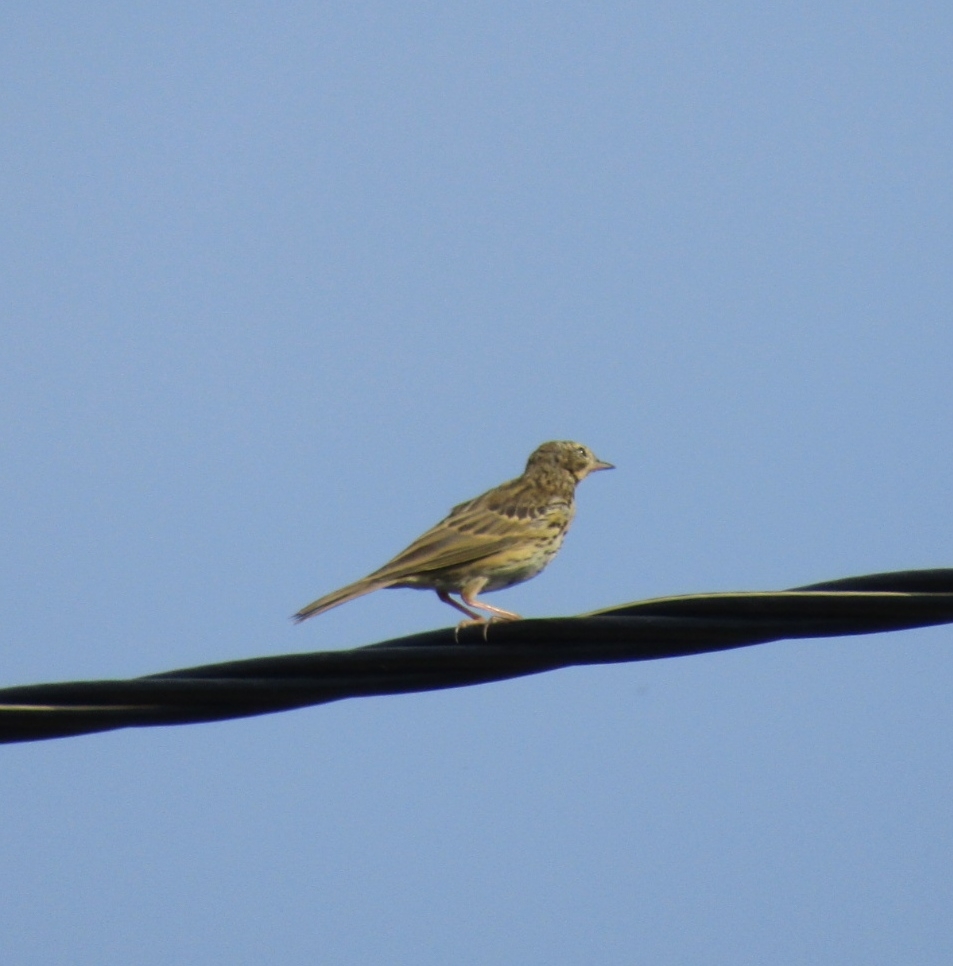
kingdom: Animalia
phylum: Chordata
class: Aves
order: Passeriformes
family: Motacillidae
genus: Anthus
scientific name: Anthus trivialis
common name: Tree pipit
